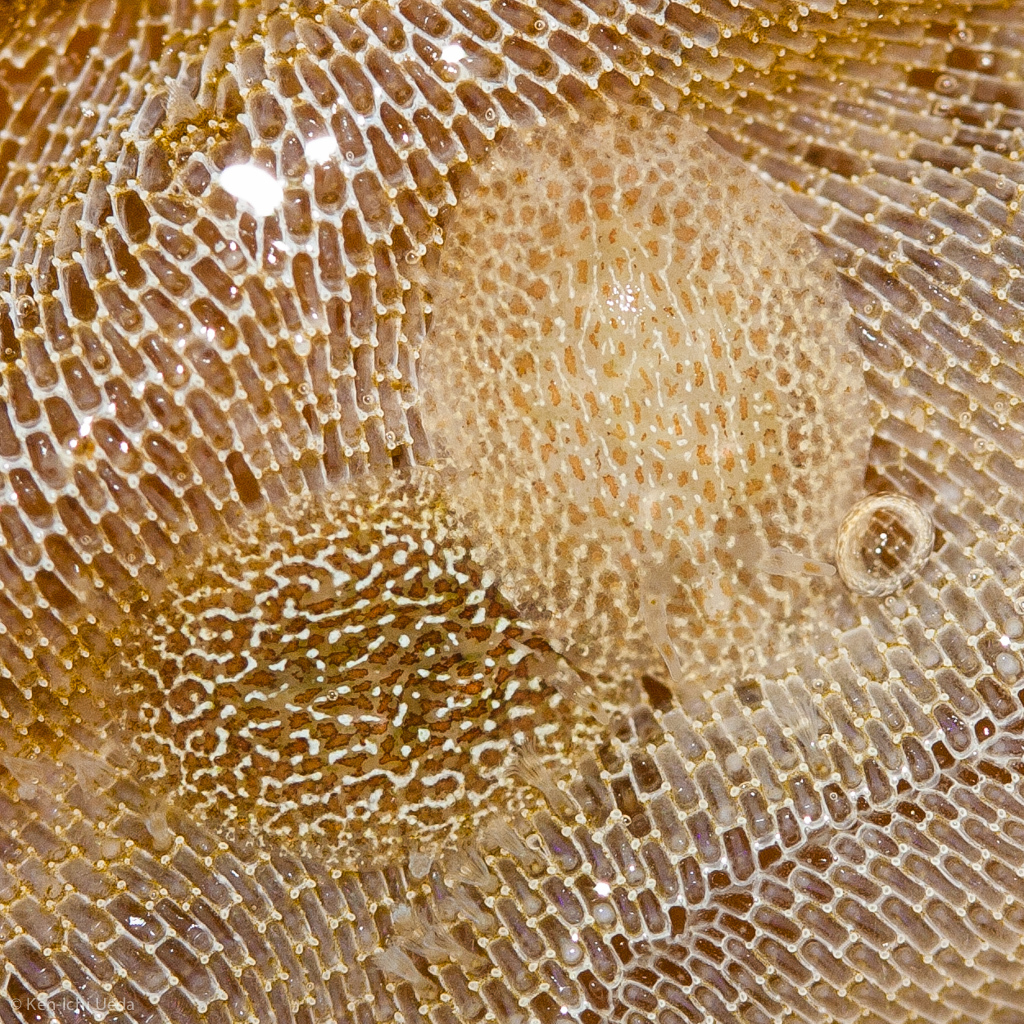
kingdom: Animalia
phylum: Mollusca
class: Gastropoda
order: Nudibranchia
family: Corambidae
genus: Corambe
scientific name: Corambe steinbergae
